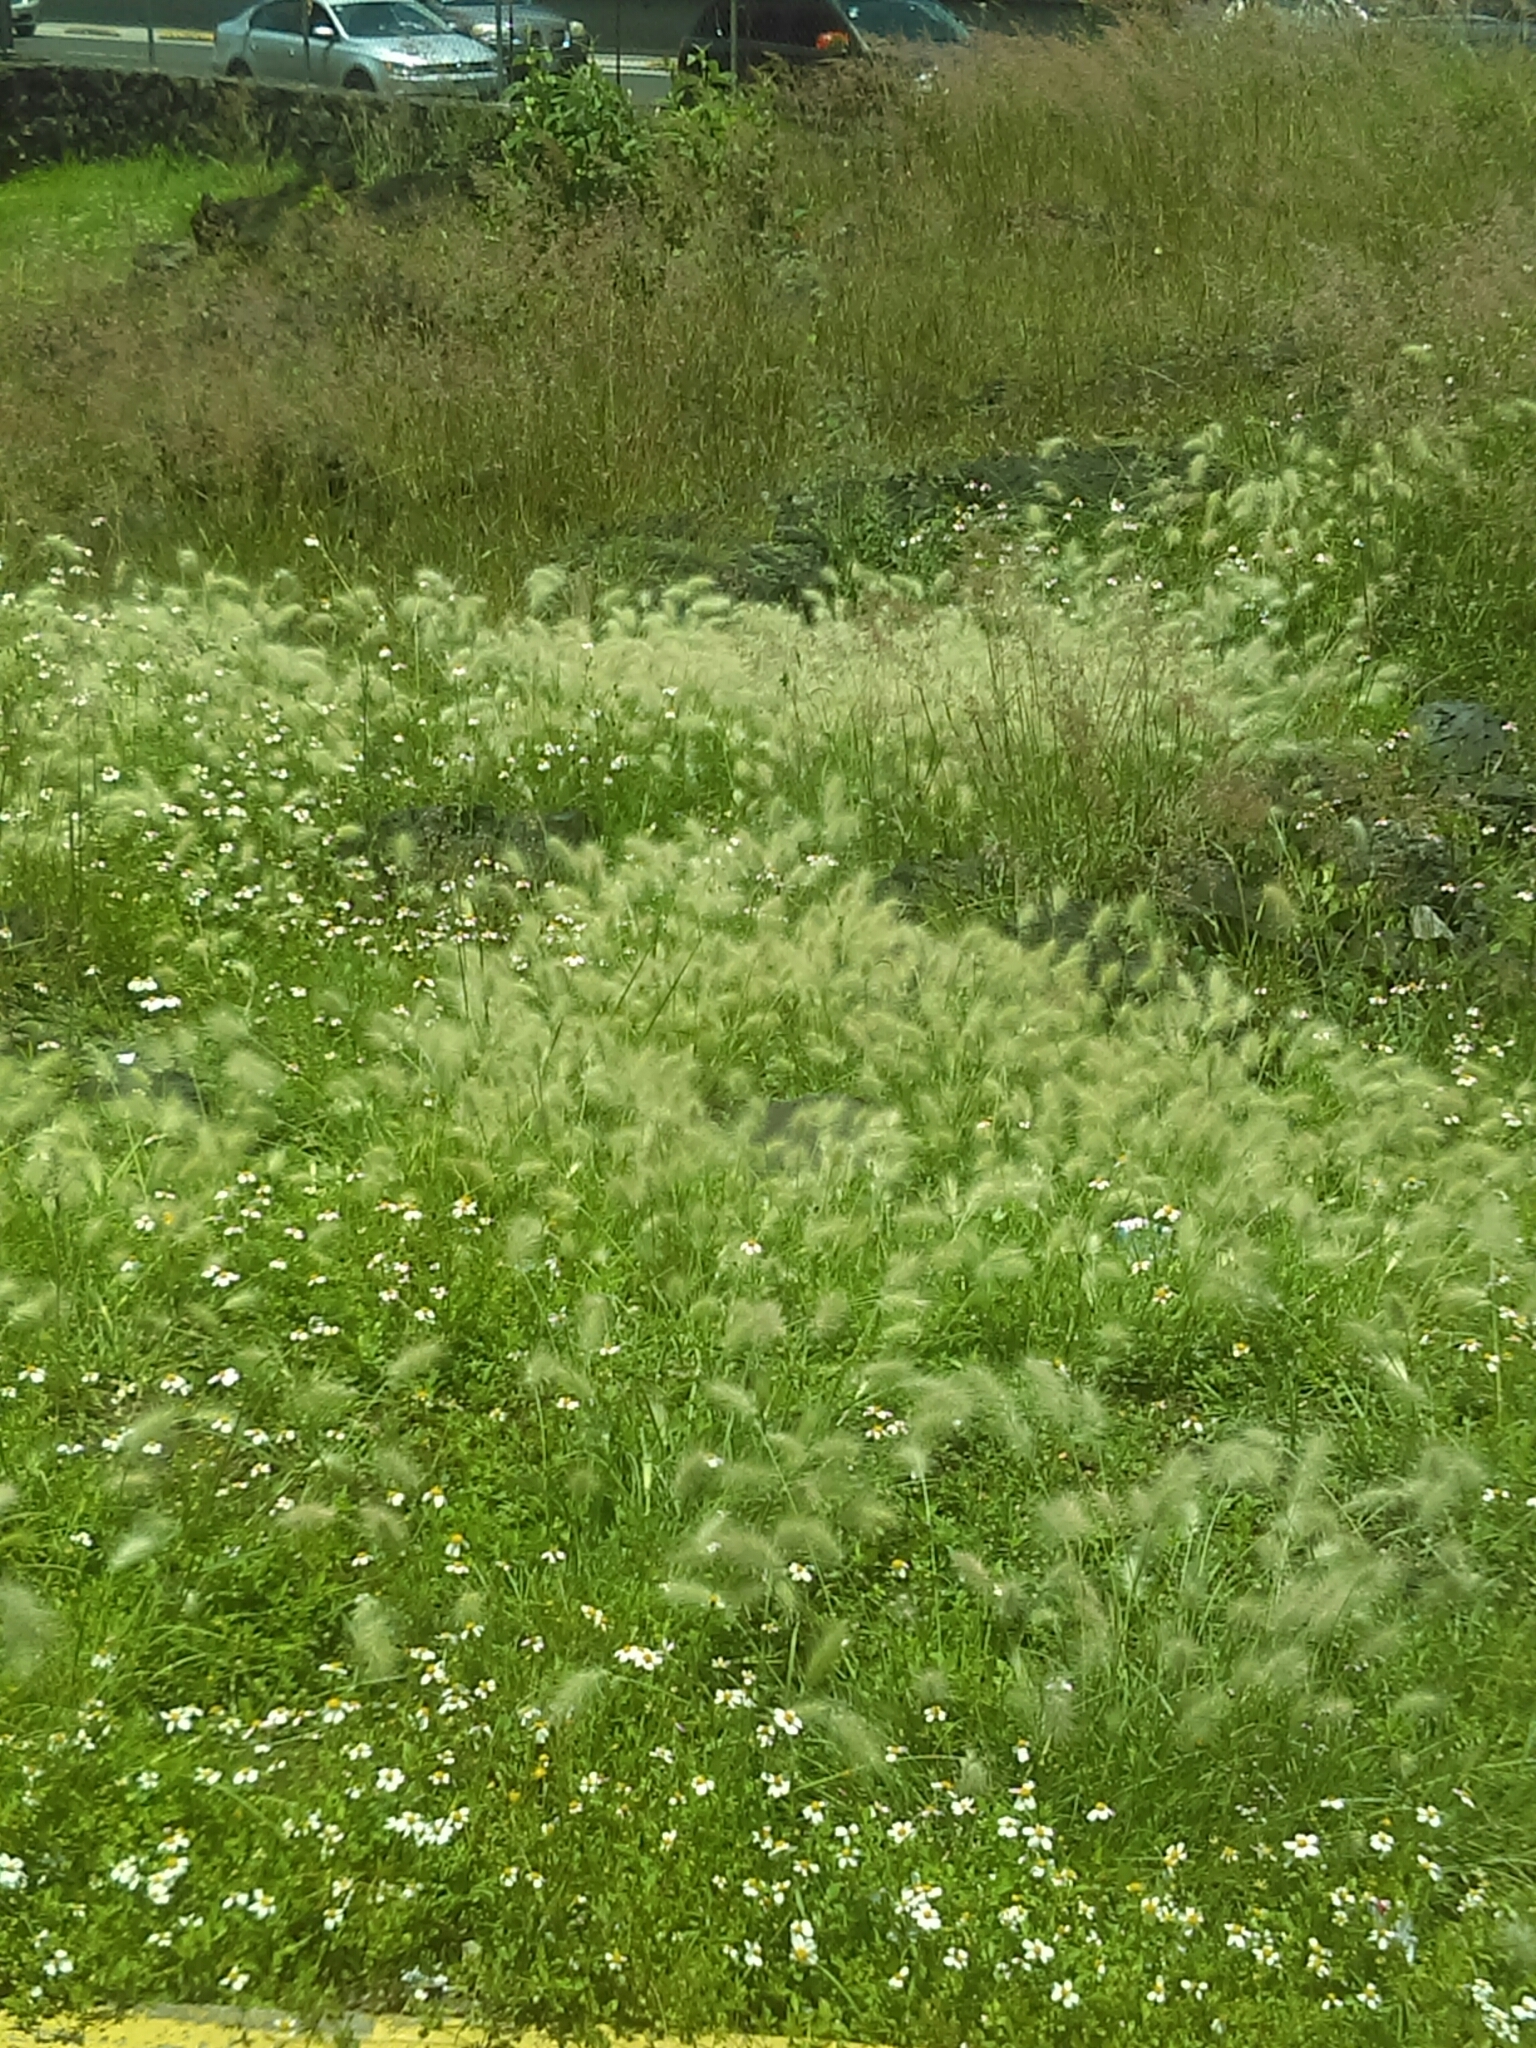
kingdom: Plantae
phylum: Tracheophyta
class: Liliopsida
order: Poales
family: Poaceae
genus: Cenchrus
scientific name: Cenchrus longisetus
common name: Feathertop
